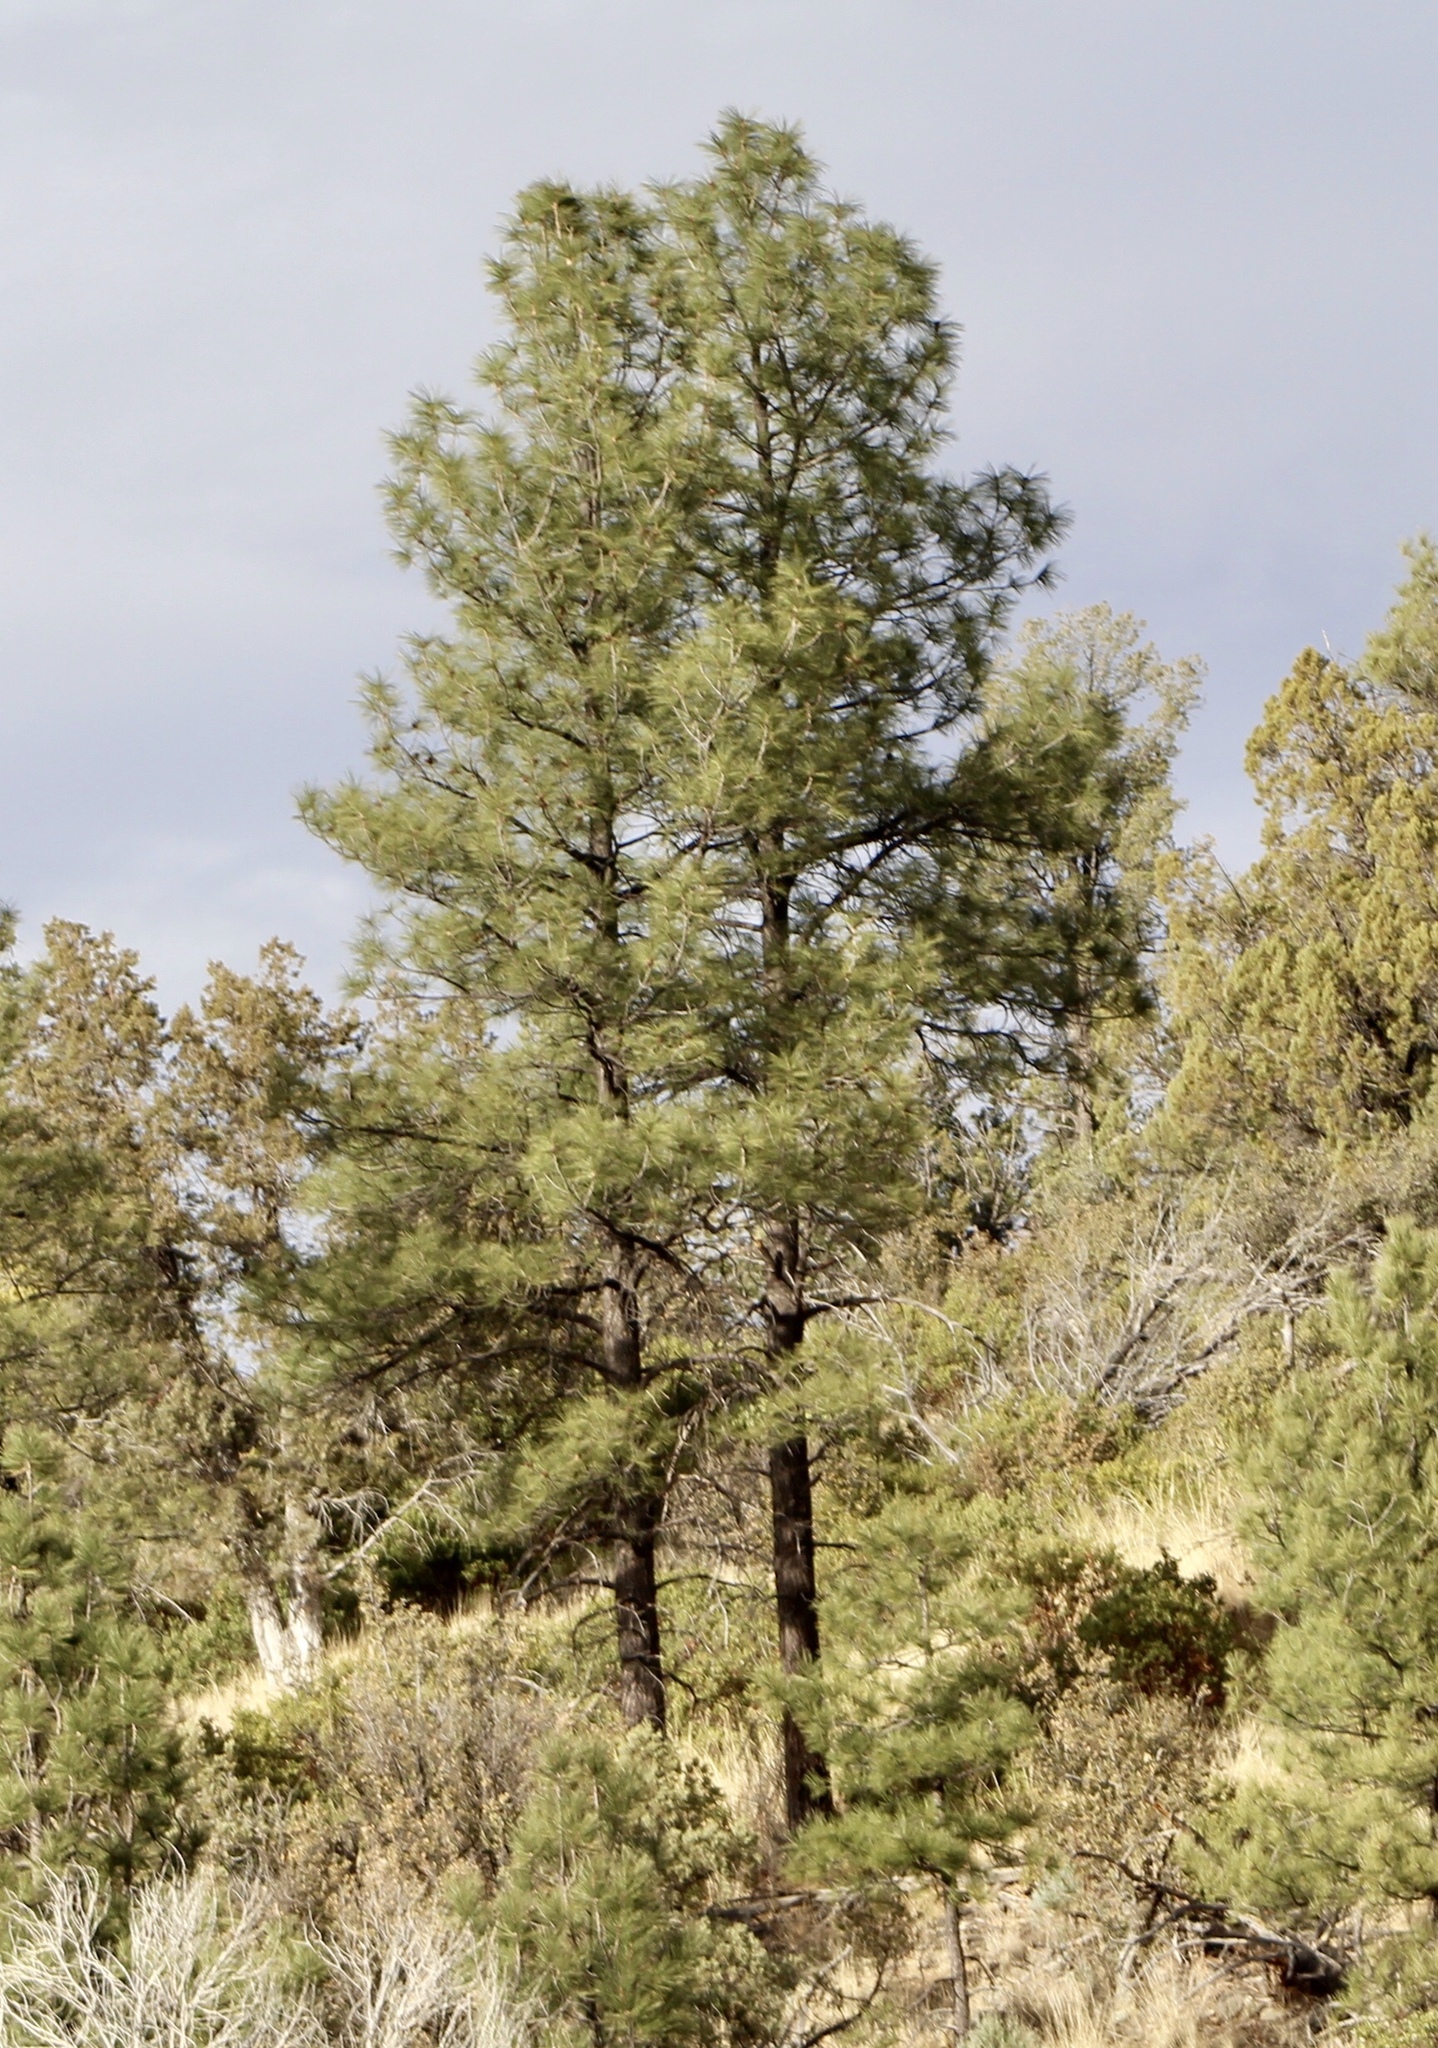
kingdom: Plantae
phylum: Tracheophyta
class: Pinopsida
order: Pinales
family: Pinaceae
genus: Pinus
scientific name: Pinus ponderosa
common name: Western yellow-pine
